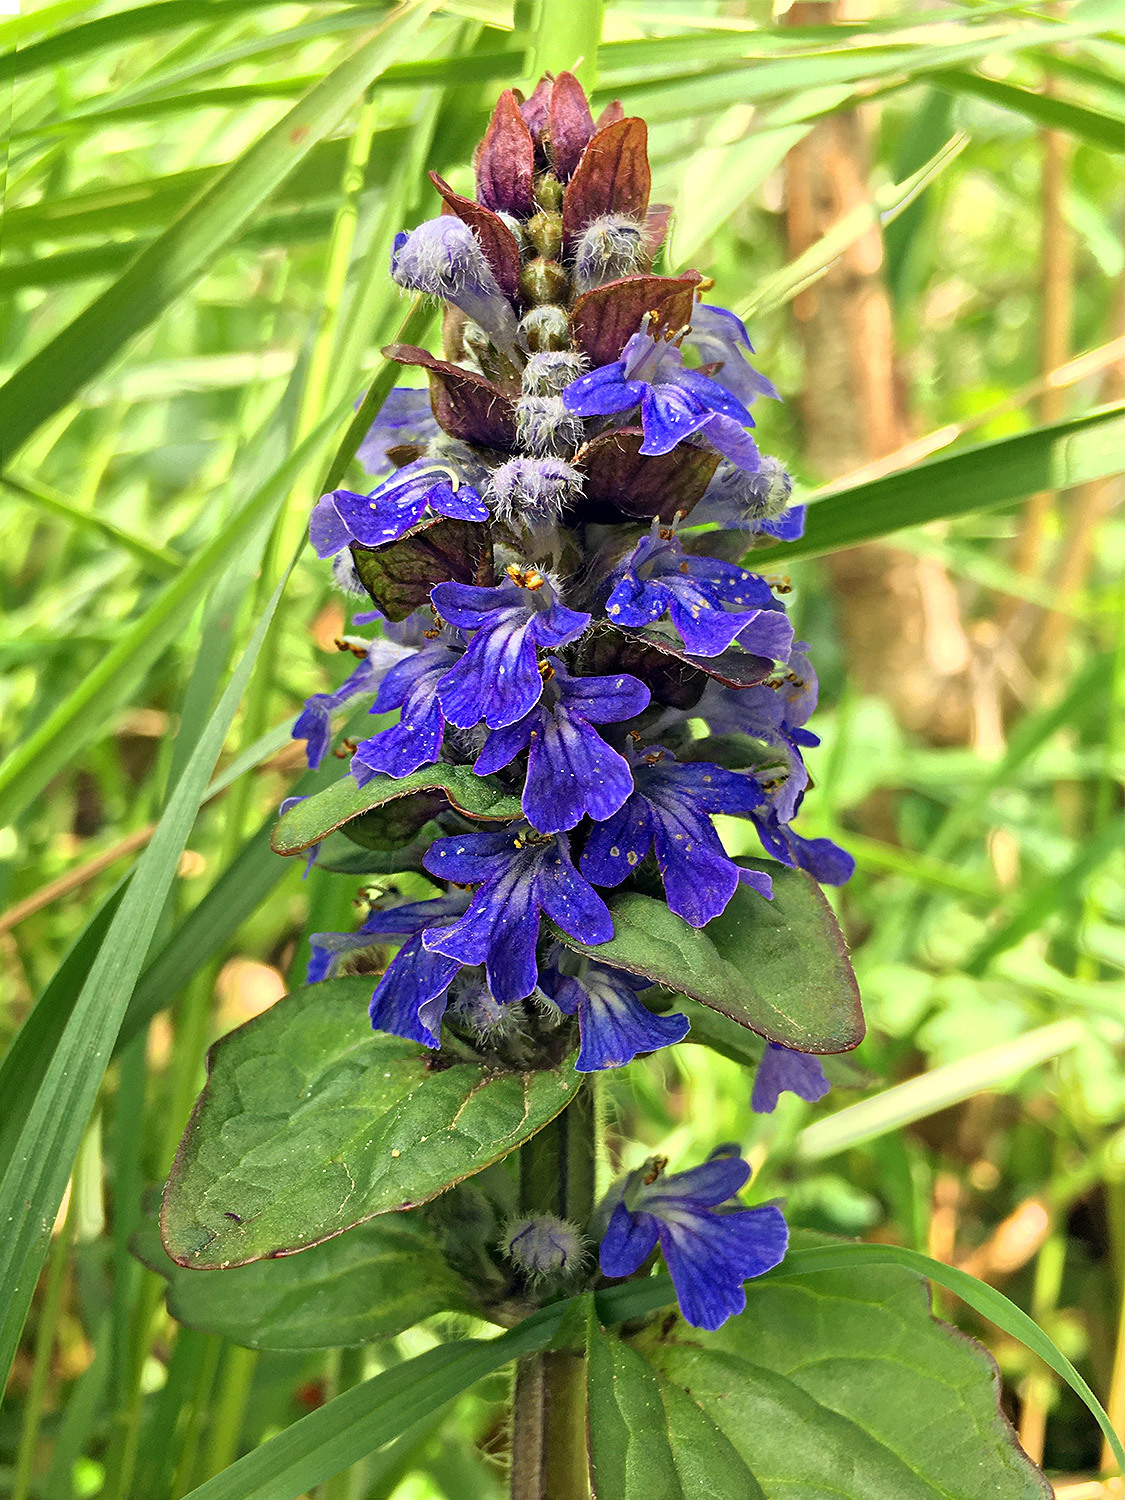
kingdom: Plantae
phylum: Tracheophyta
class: Magnoliopsida
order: Lamiales
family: Lamiaceae
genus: Ajuga
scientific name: Ajuga reptans
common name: Bugle
